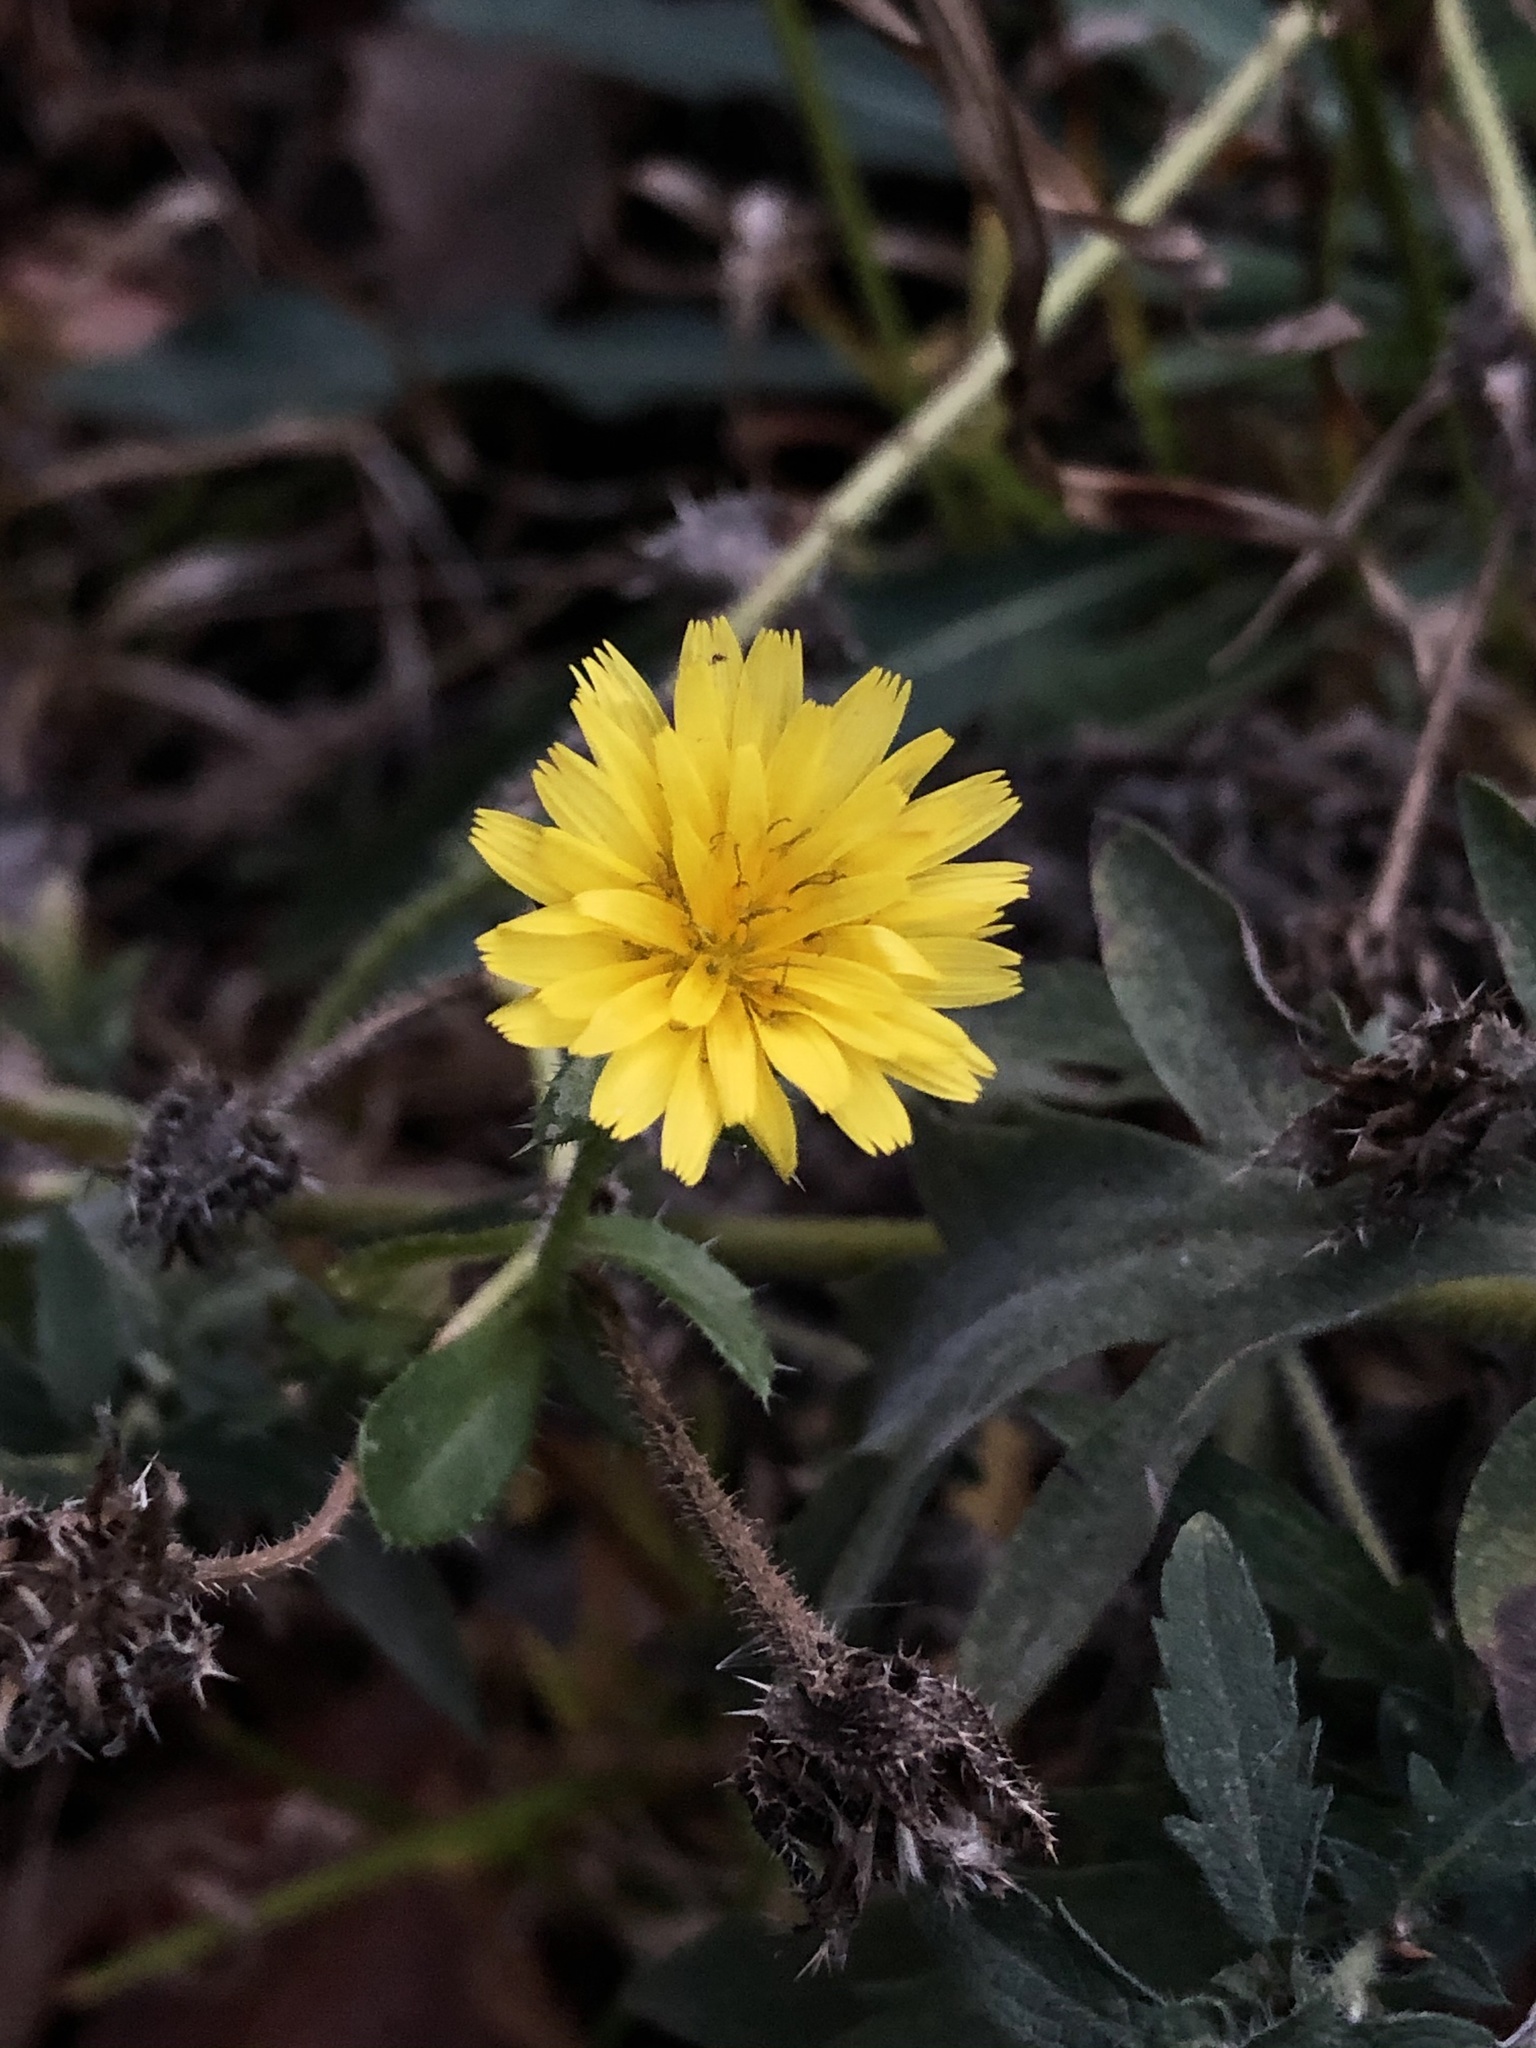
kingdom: Plantae
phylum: Tracheophyta
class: Magnoliopsida
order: Asterales
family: Asteraceae
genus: Helminthotheca
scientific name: Helminthotheca echioides
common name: Ox-tongue
